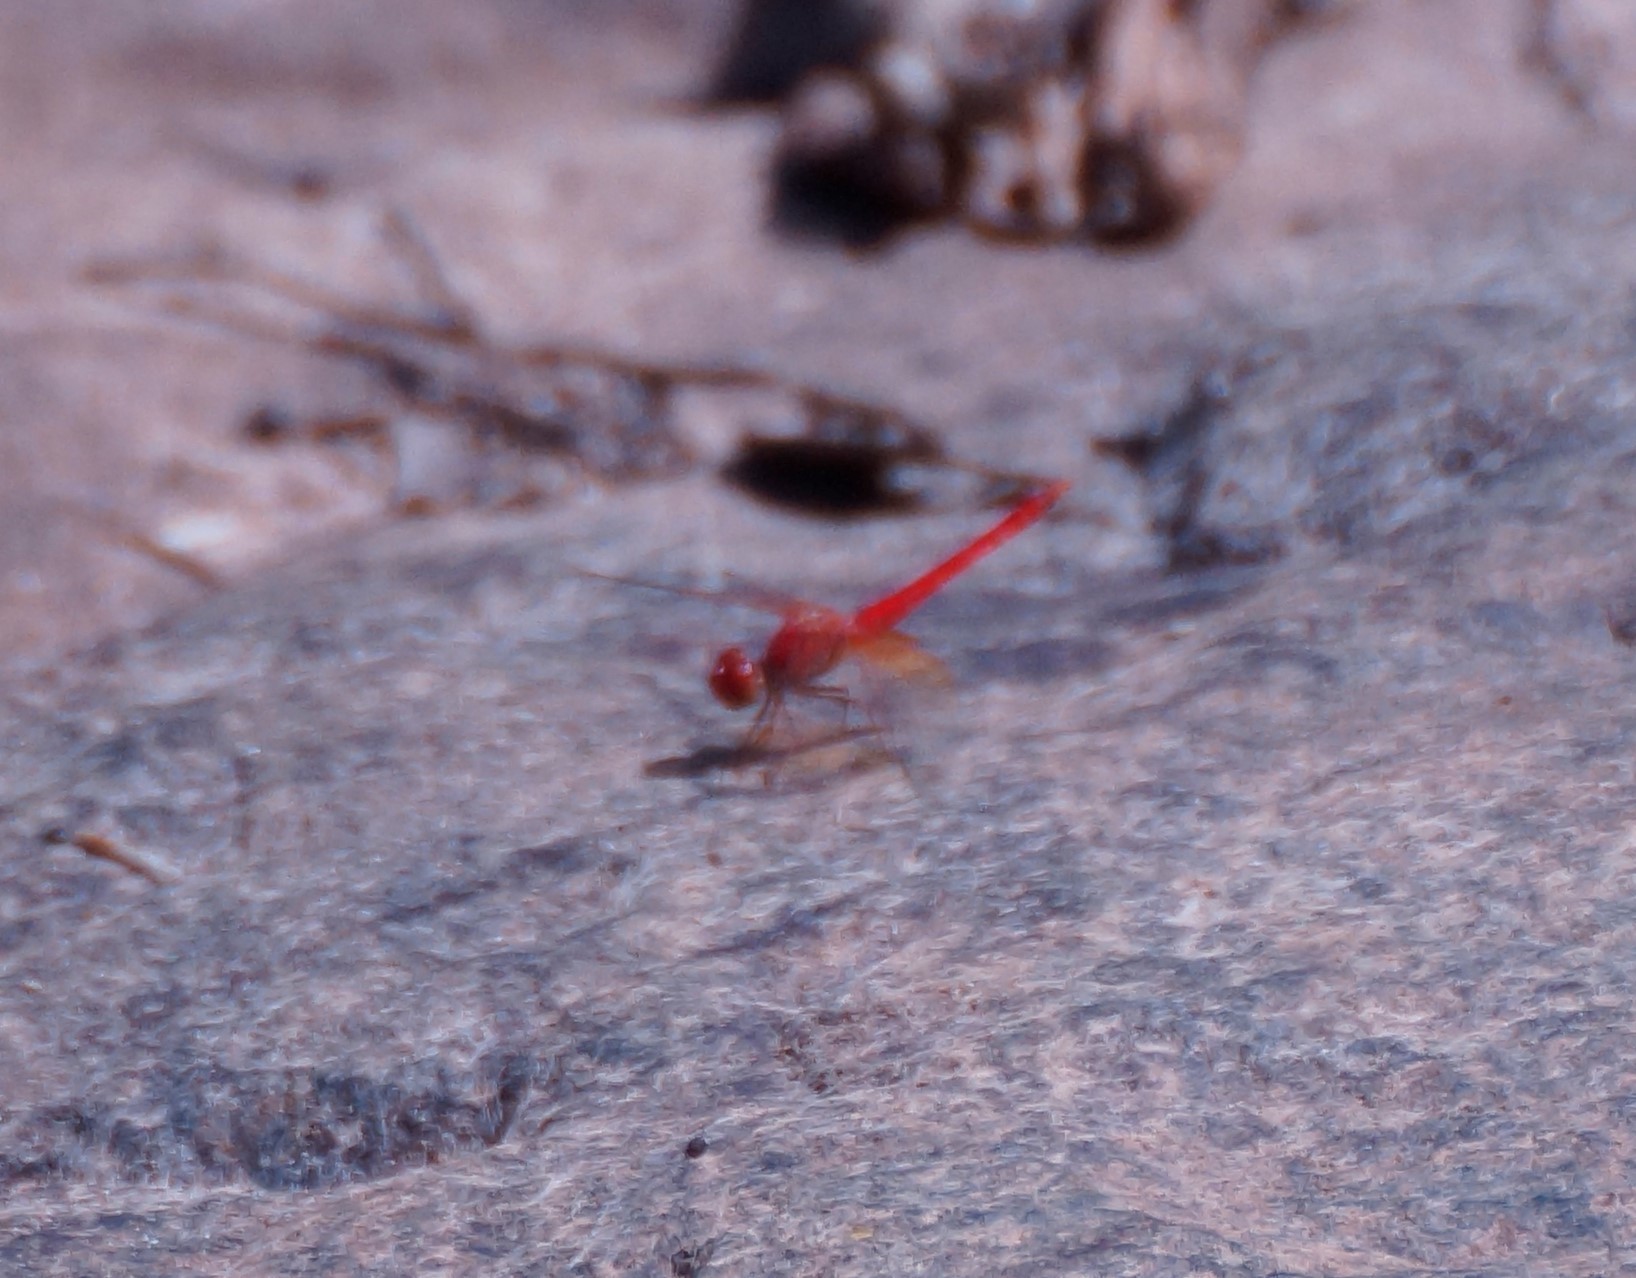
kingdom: Animalia
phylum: Arthropoda
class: Insecta
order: Odonata
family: Libellulidae
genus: Diplacodes
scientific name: Diplacodes haematodes
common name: Scarlet percher
